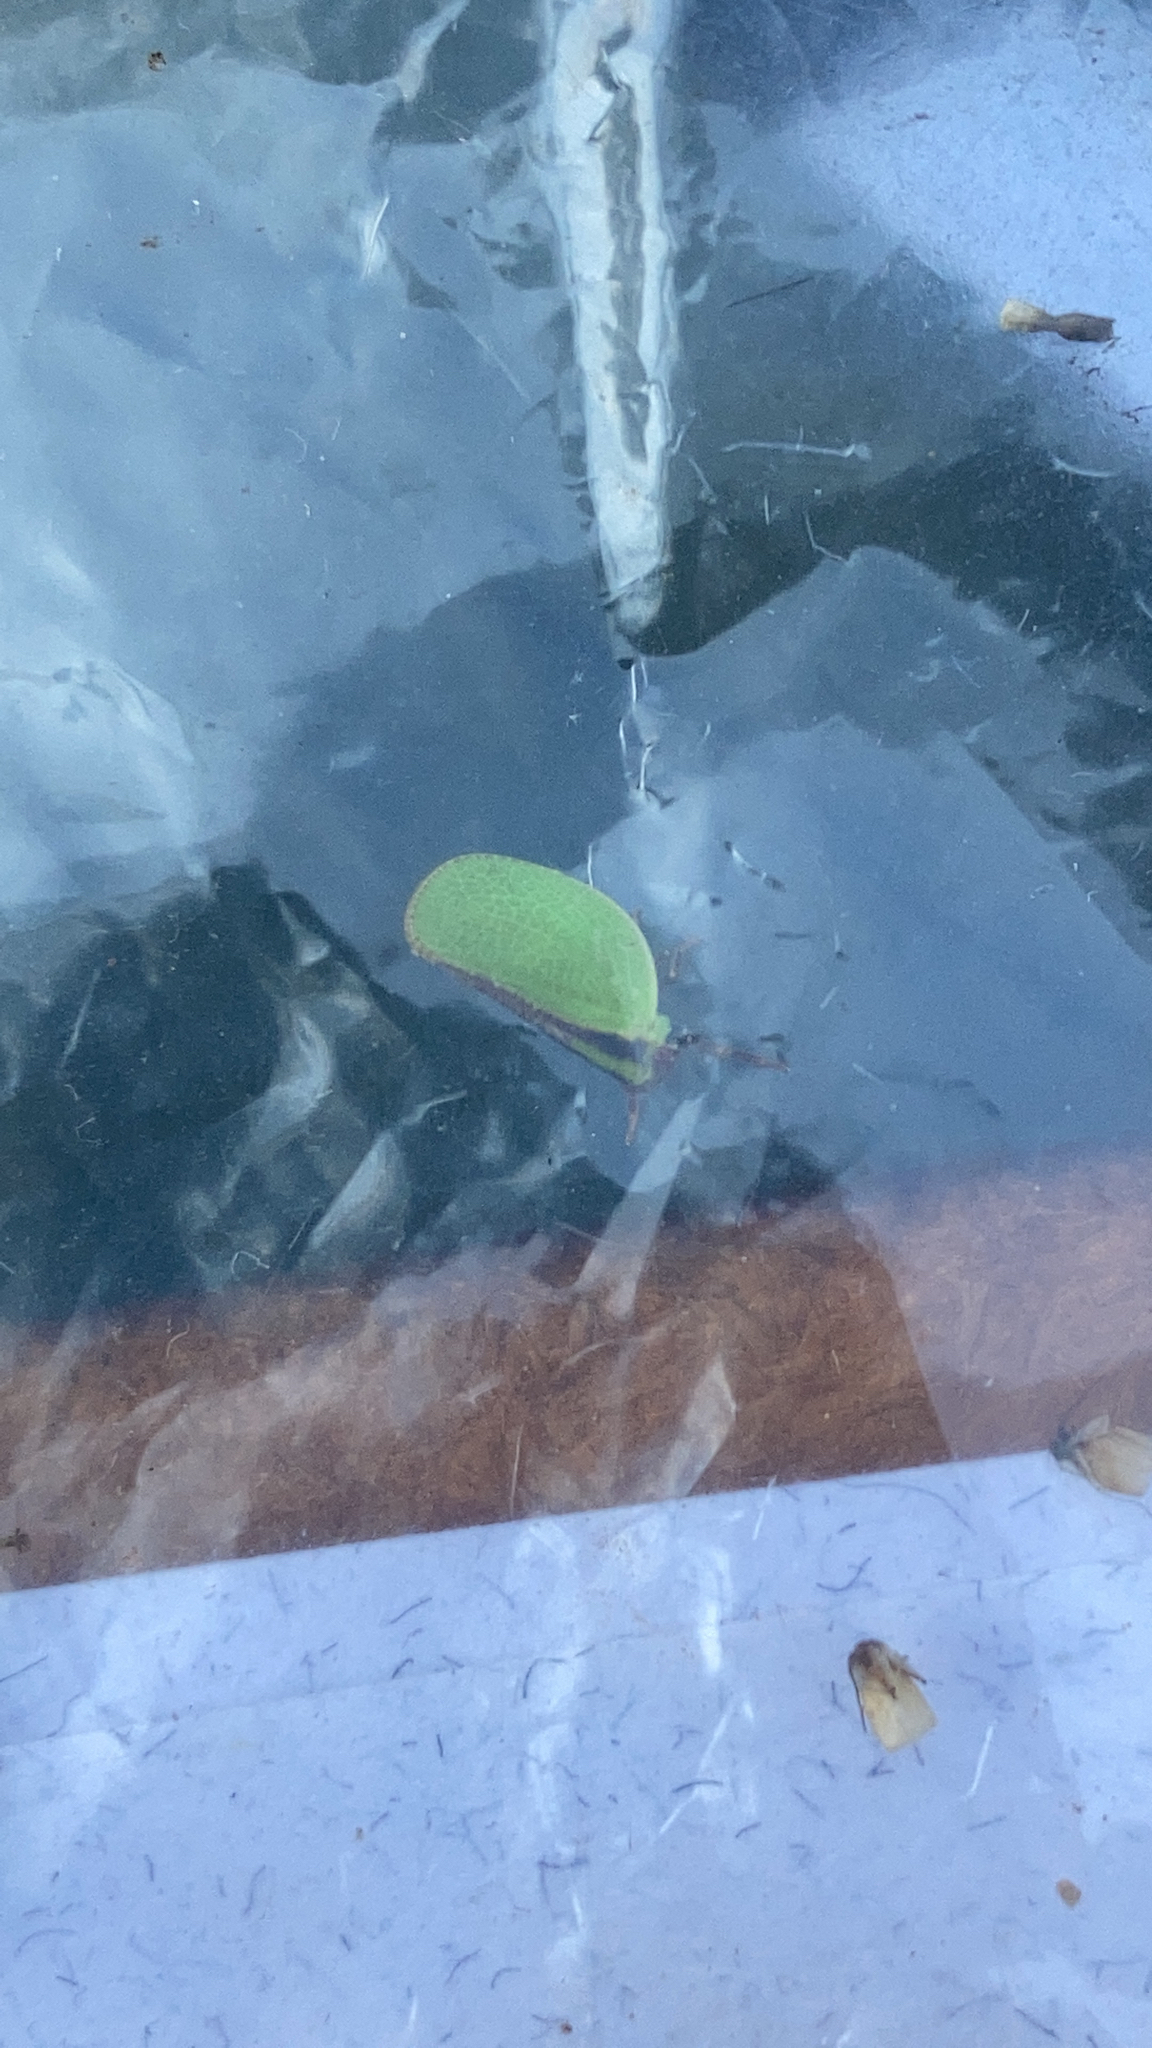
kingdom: Animalia
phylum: Arthropoda
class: Insecta
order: Hemiptera
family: Acanaloniidae
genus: Acanalonia
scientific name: Acanalonia bivittata
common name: Two-striped planthopper
